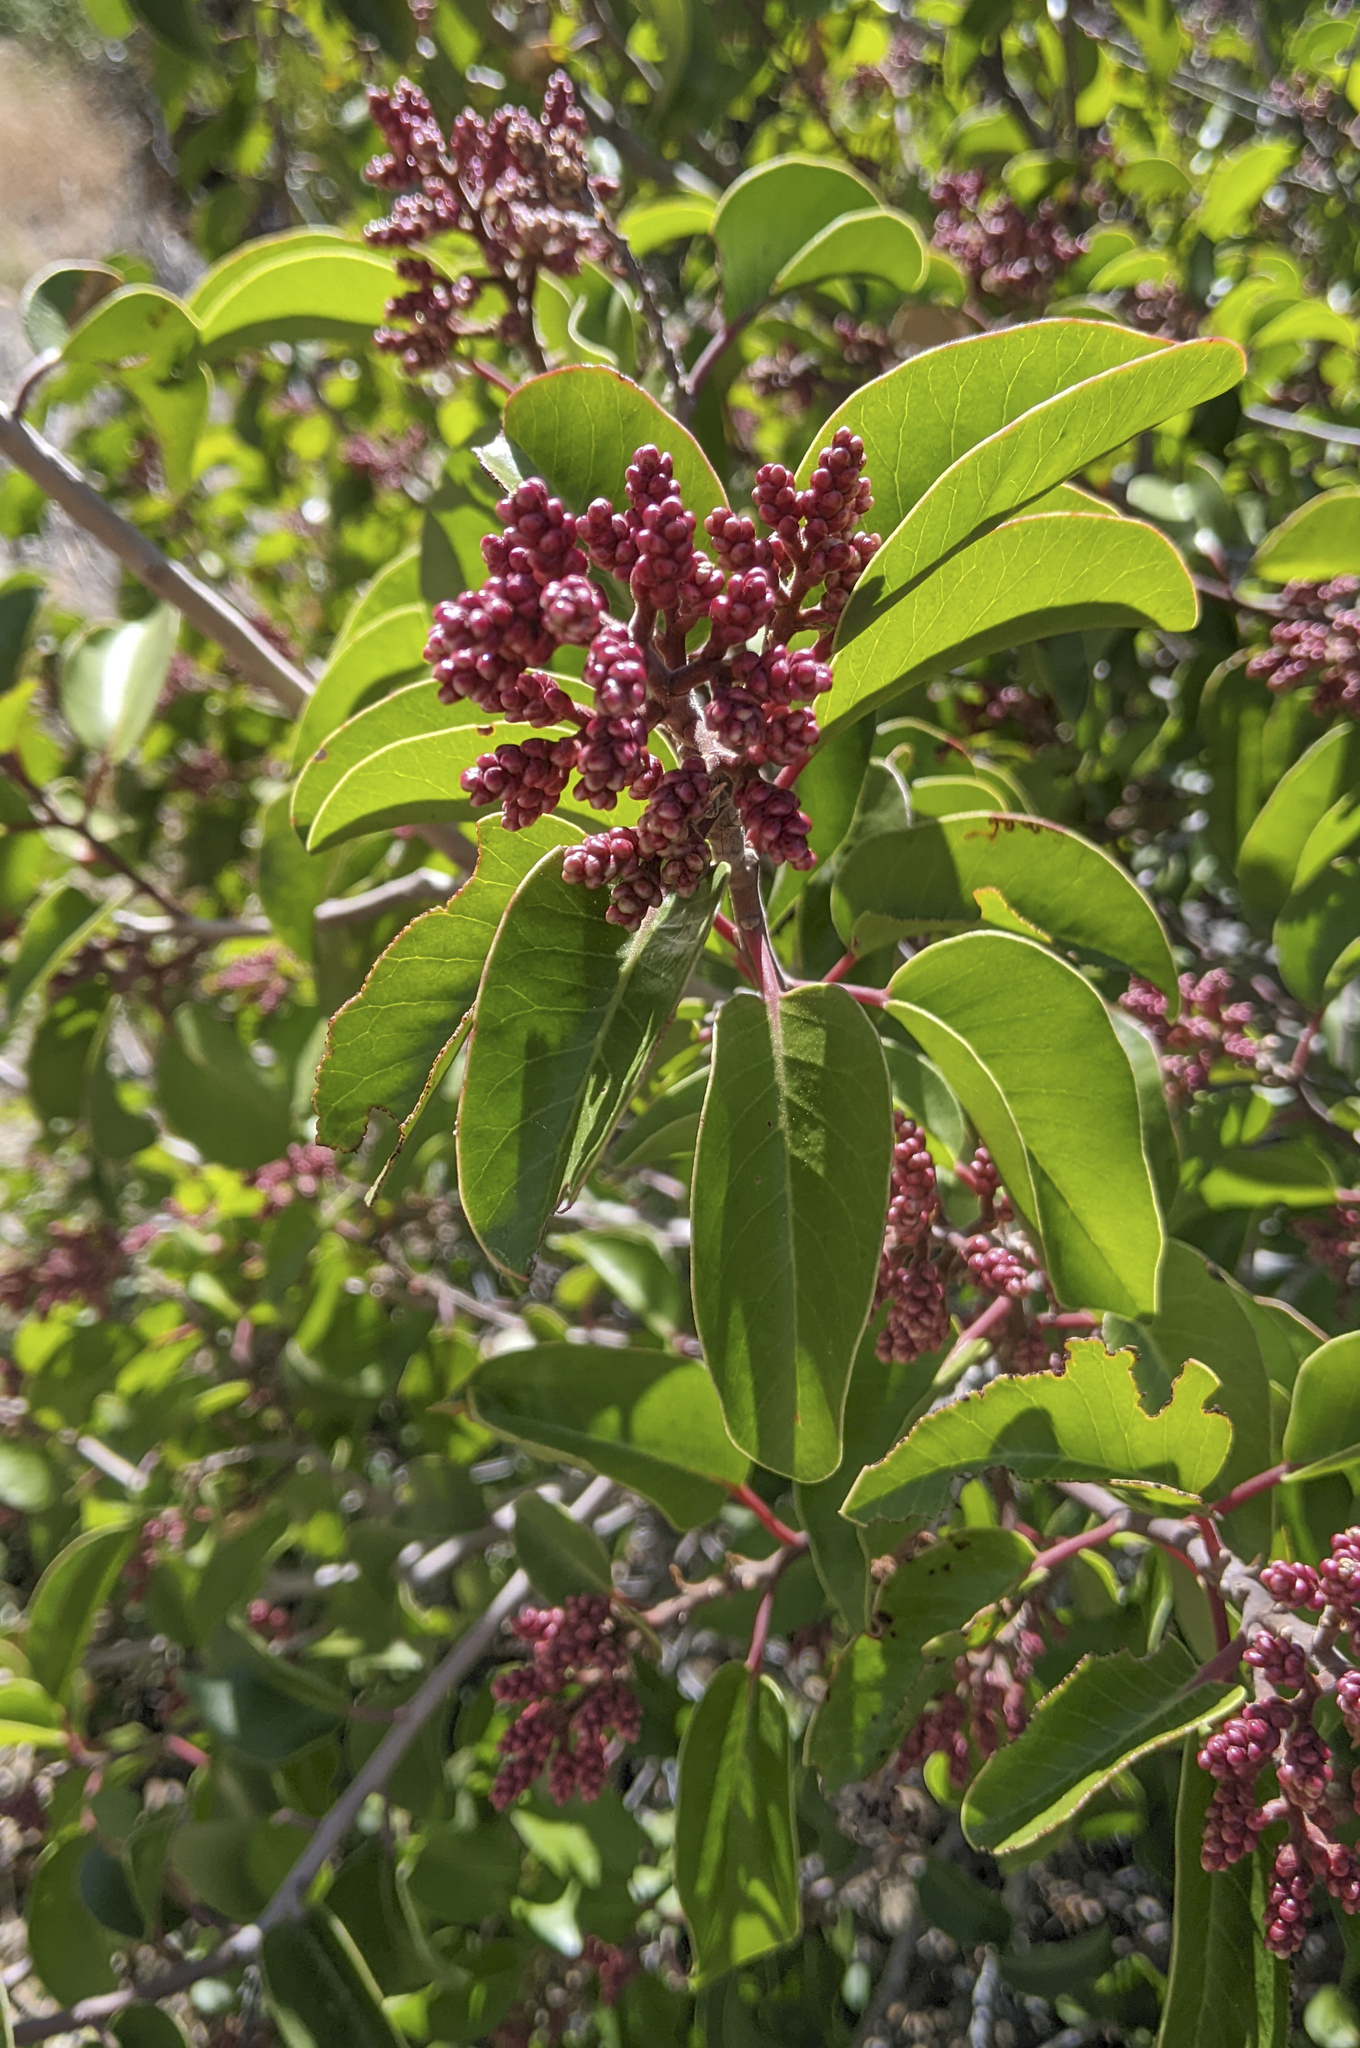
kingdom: Plantae
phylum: Tracheophyta
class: Magnoliopsida
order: Sapindales
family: Anacardiaceae
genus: Rhus
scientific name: Rhus ovata
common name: Sugar sumac
